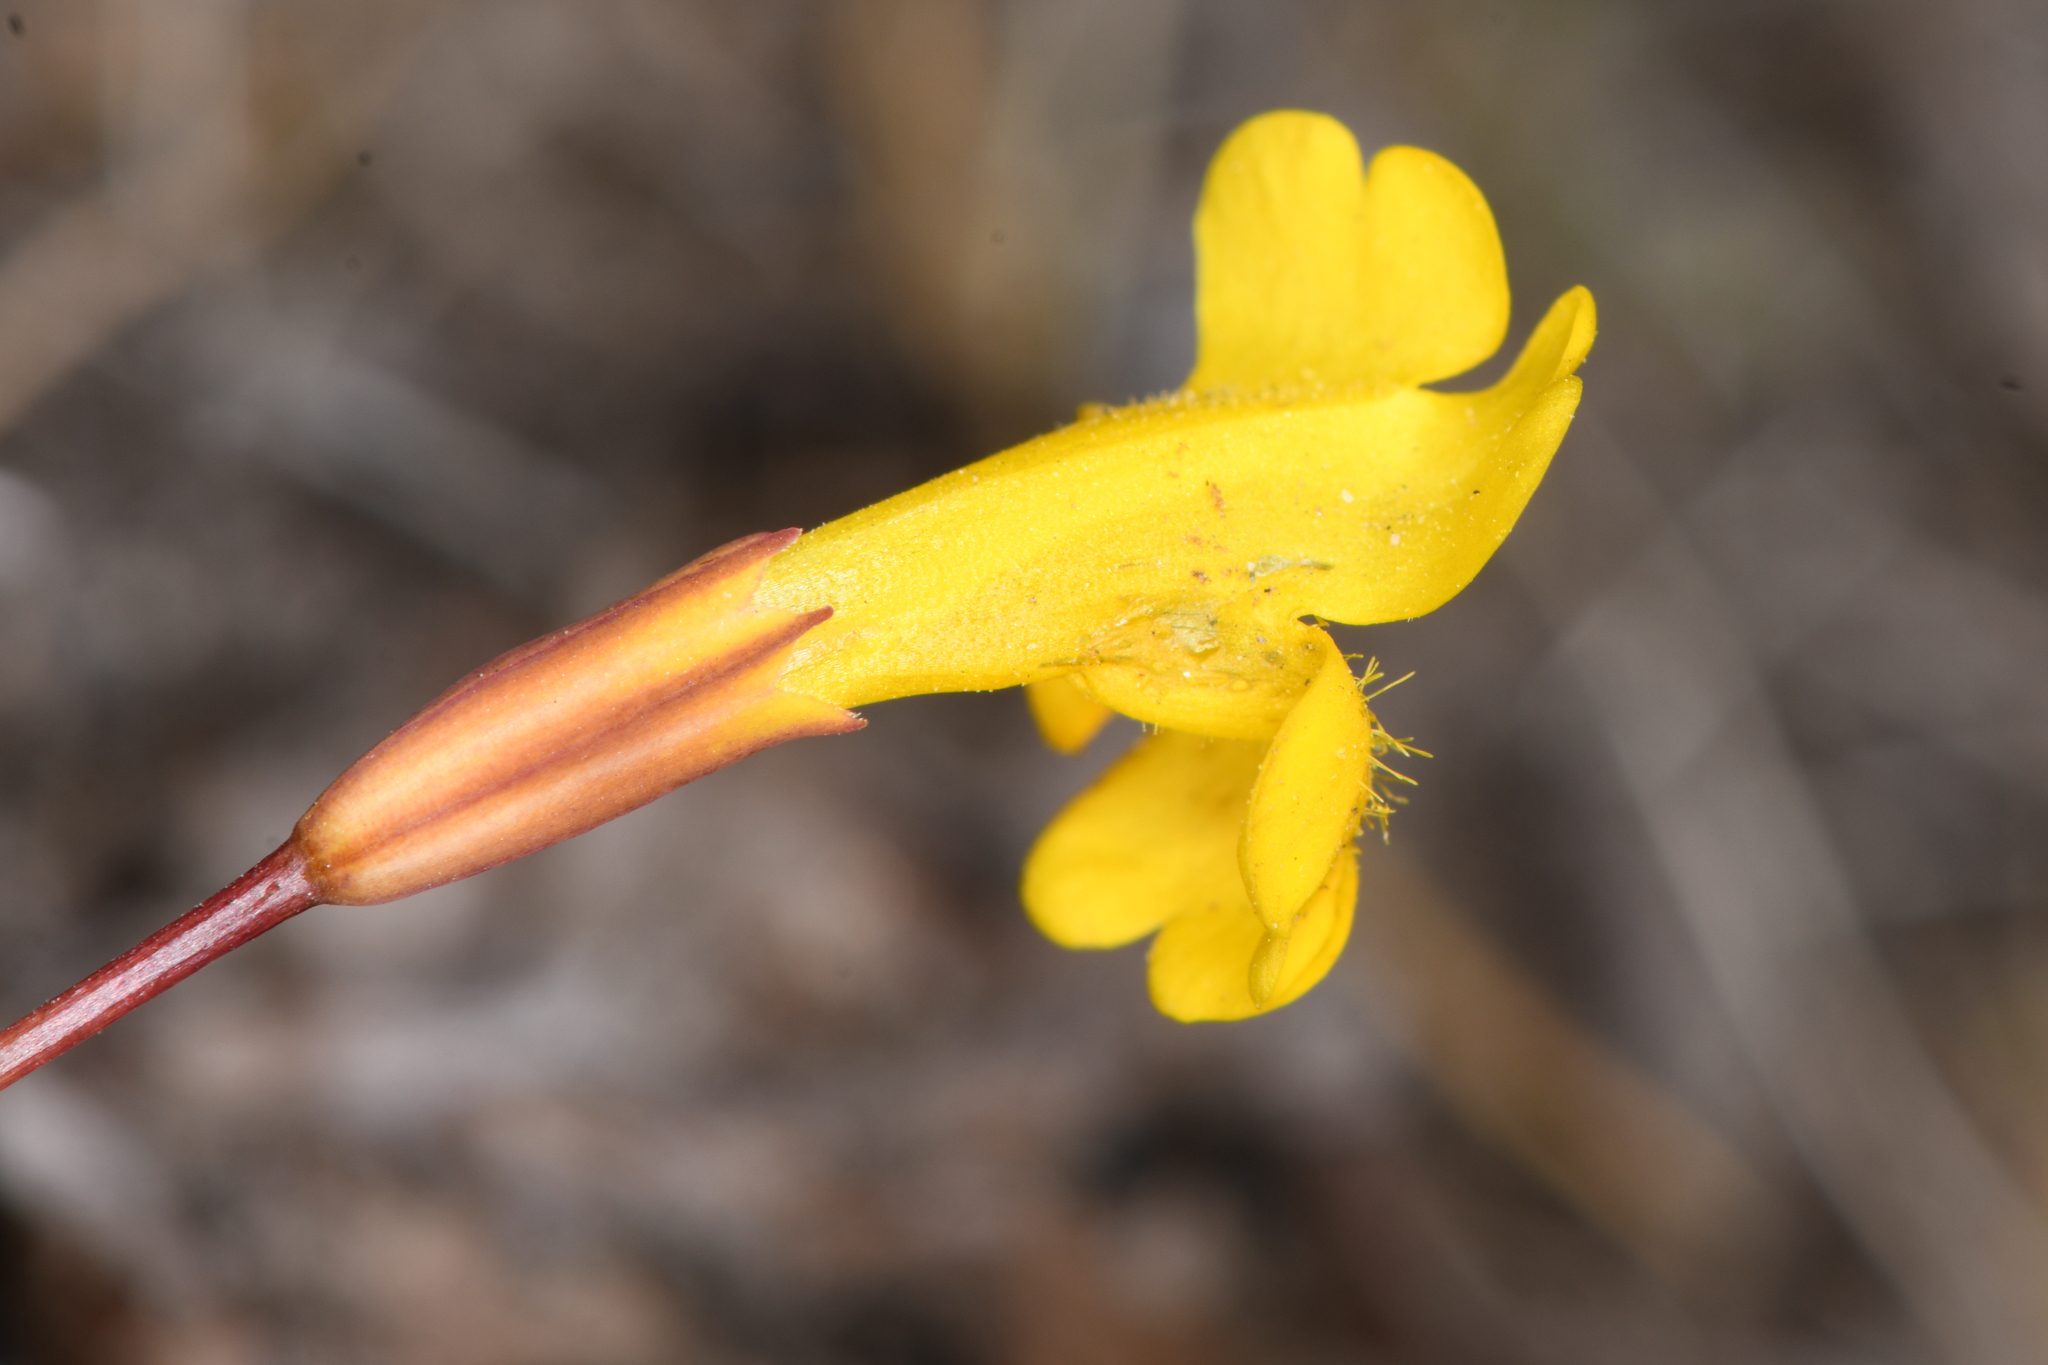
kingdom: Plantae
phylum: Tracheophyta
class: Magnoliopsida
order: Lamiales
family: Phrymaceae
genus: Erythranthe
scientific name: Erythranthe primuloides
